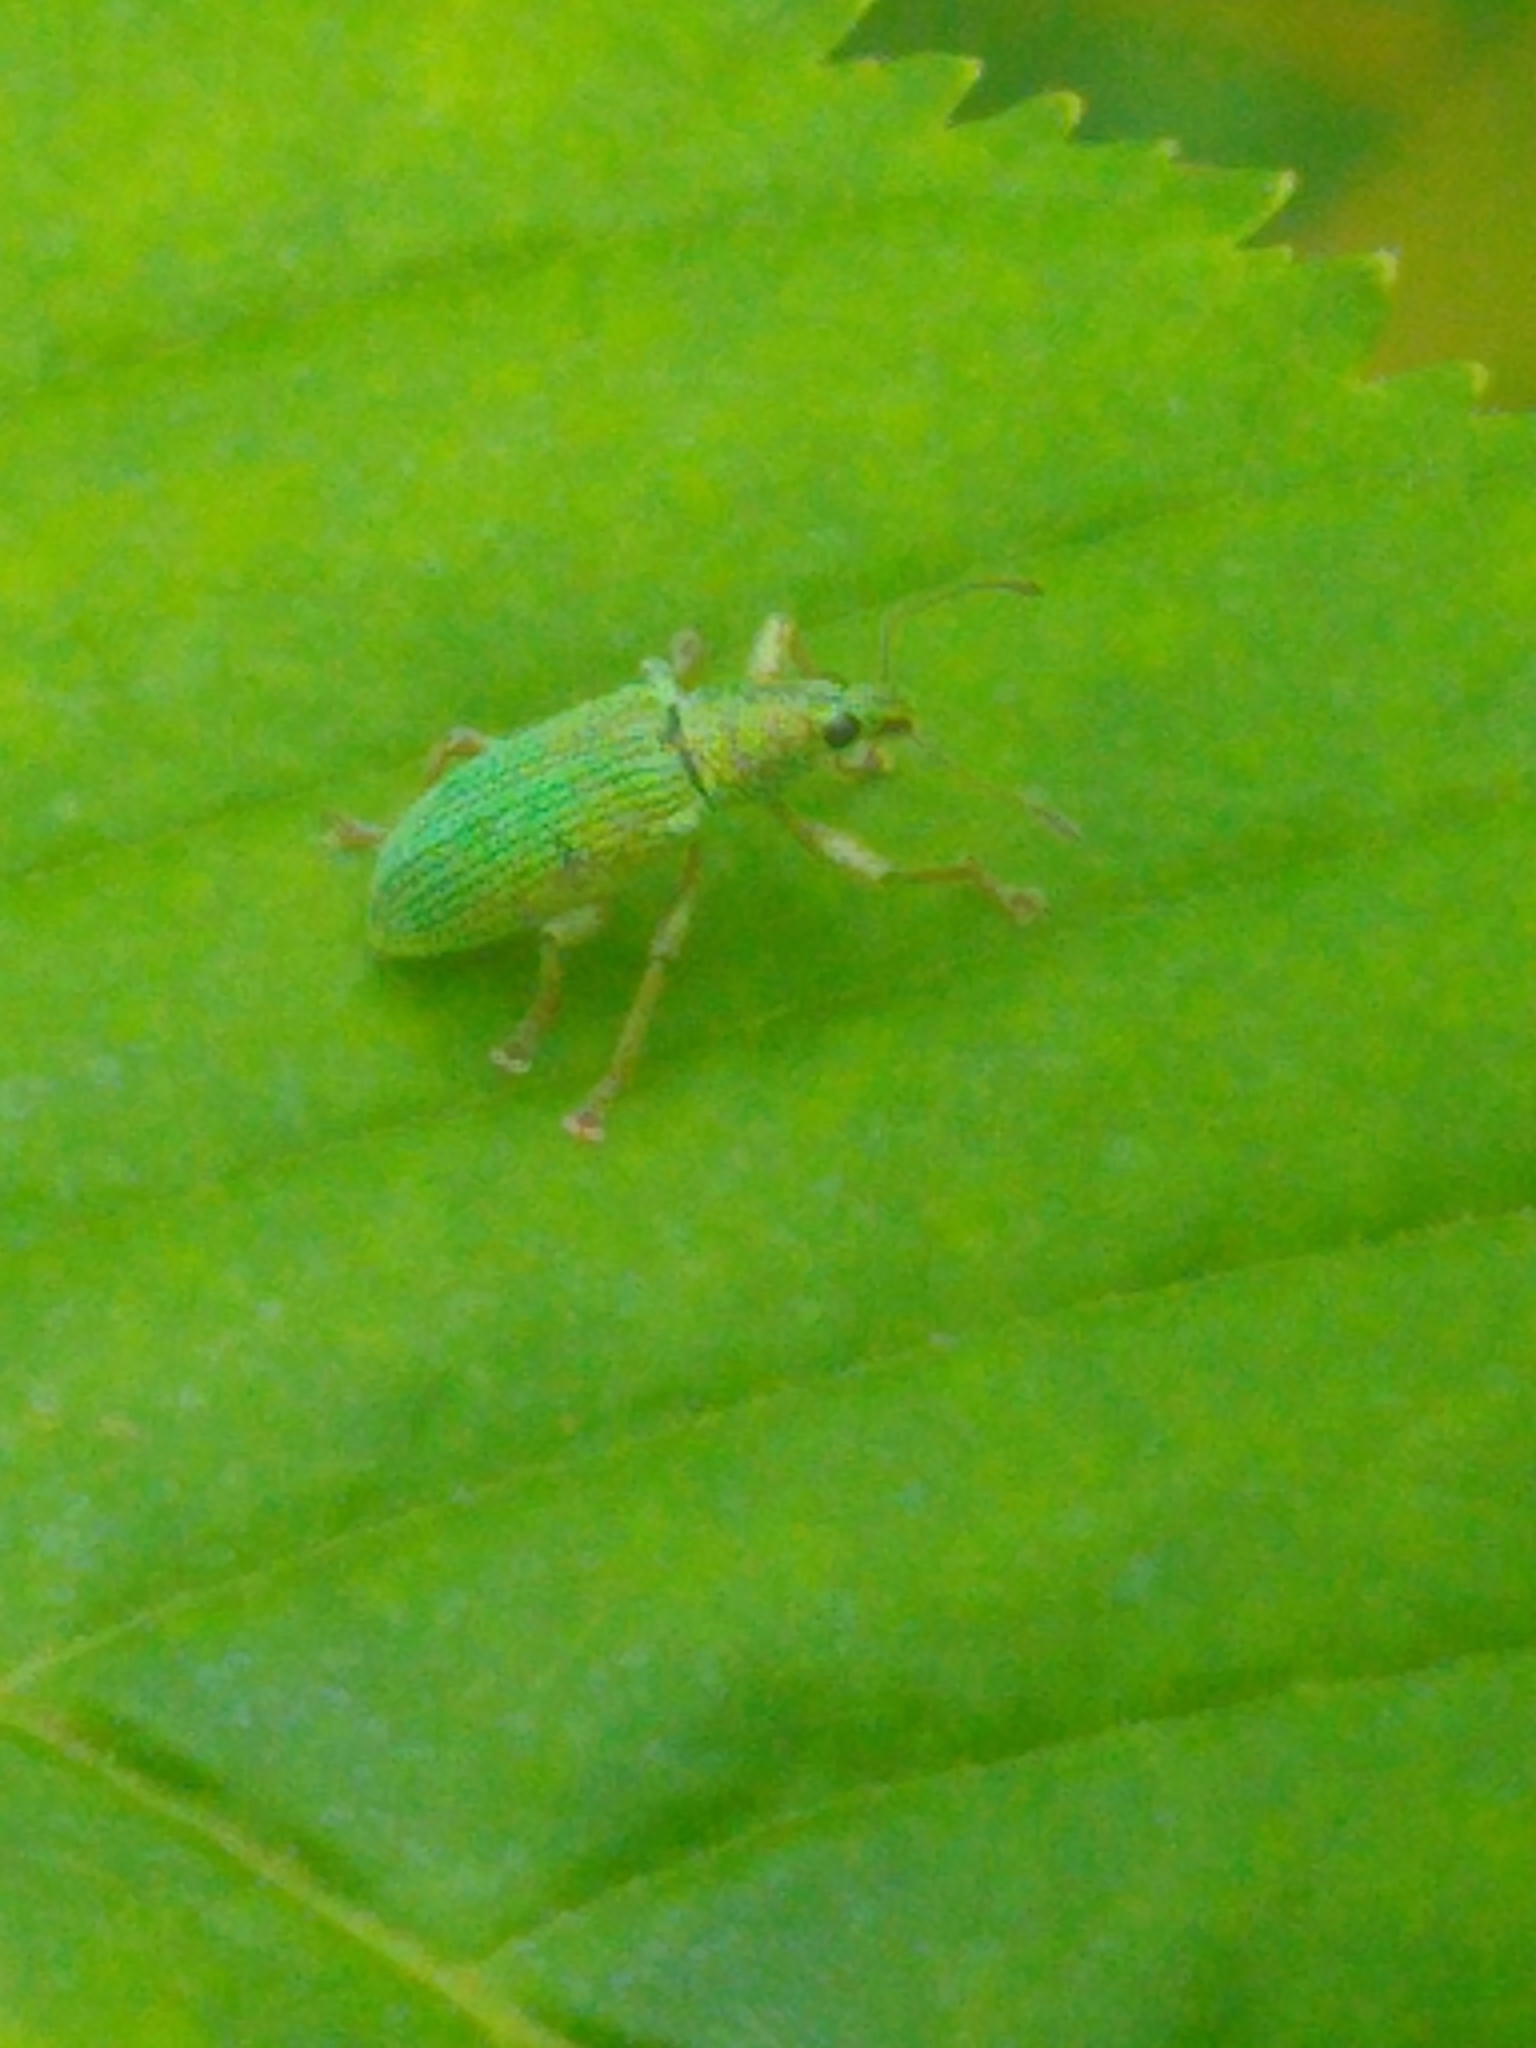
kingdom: Animalia
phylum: Arthropoda
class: Insecta
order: Coleoptera
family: Curculionidae
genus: Polydrusus
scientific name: Polydrusus formosus
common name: Weevil
